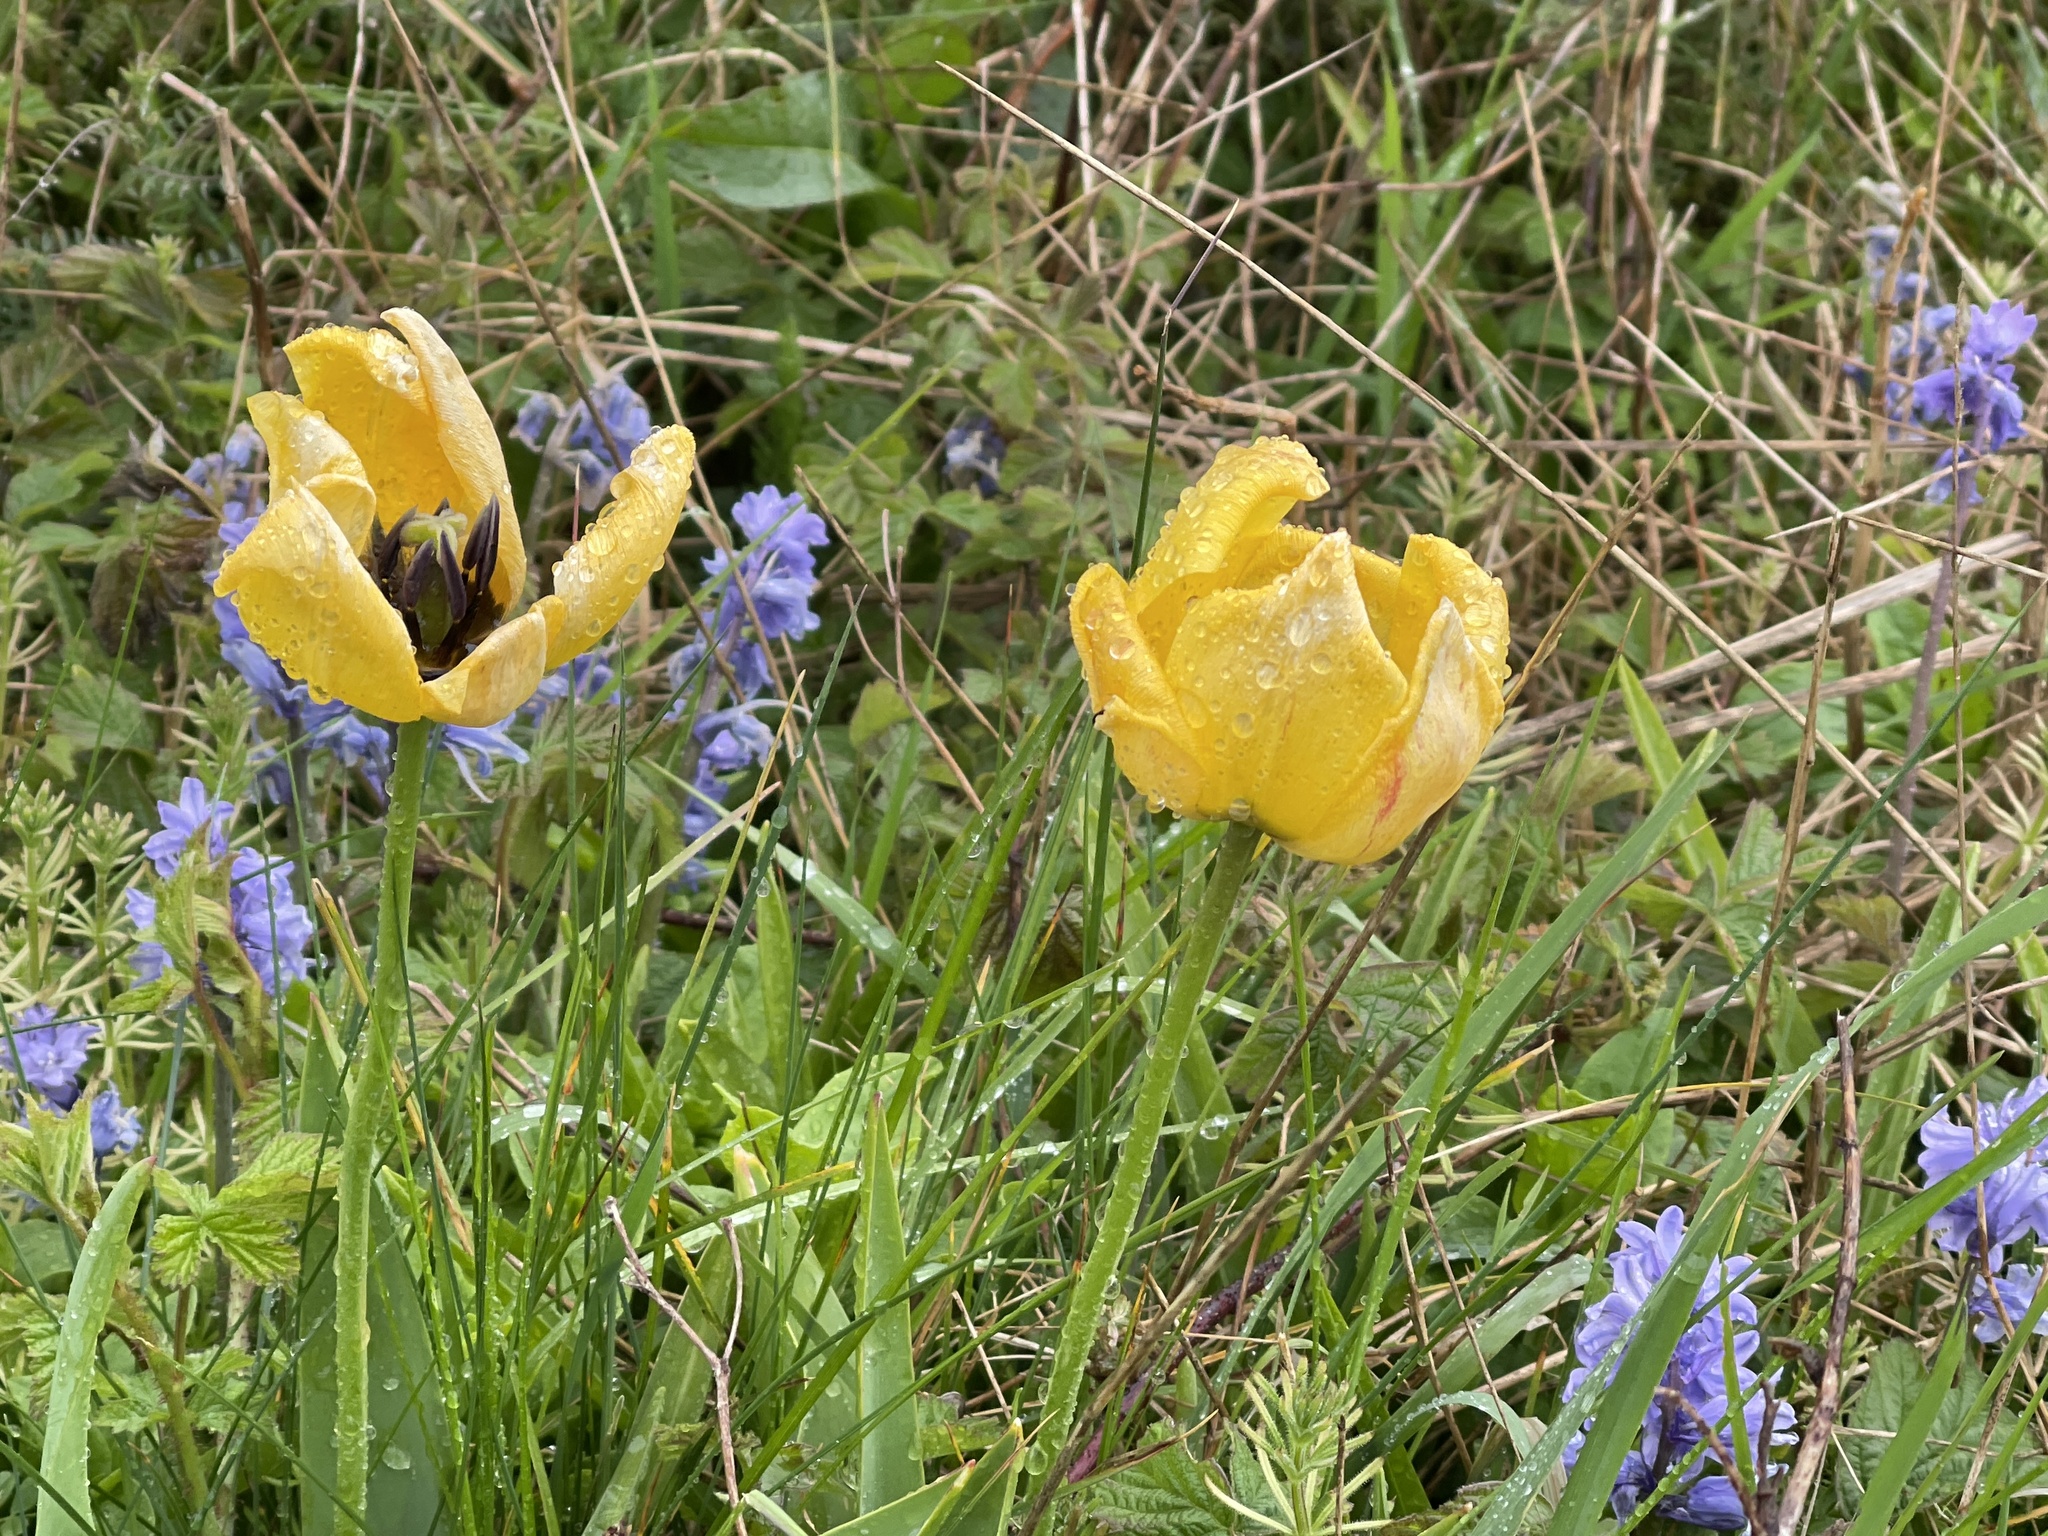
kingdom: Plantae
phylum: Tracheophyta
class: Liliopsida
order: Liliales
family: Liliaceae
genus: Tulipa
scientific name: Tulipa gesneriana
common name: Garden tulip
